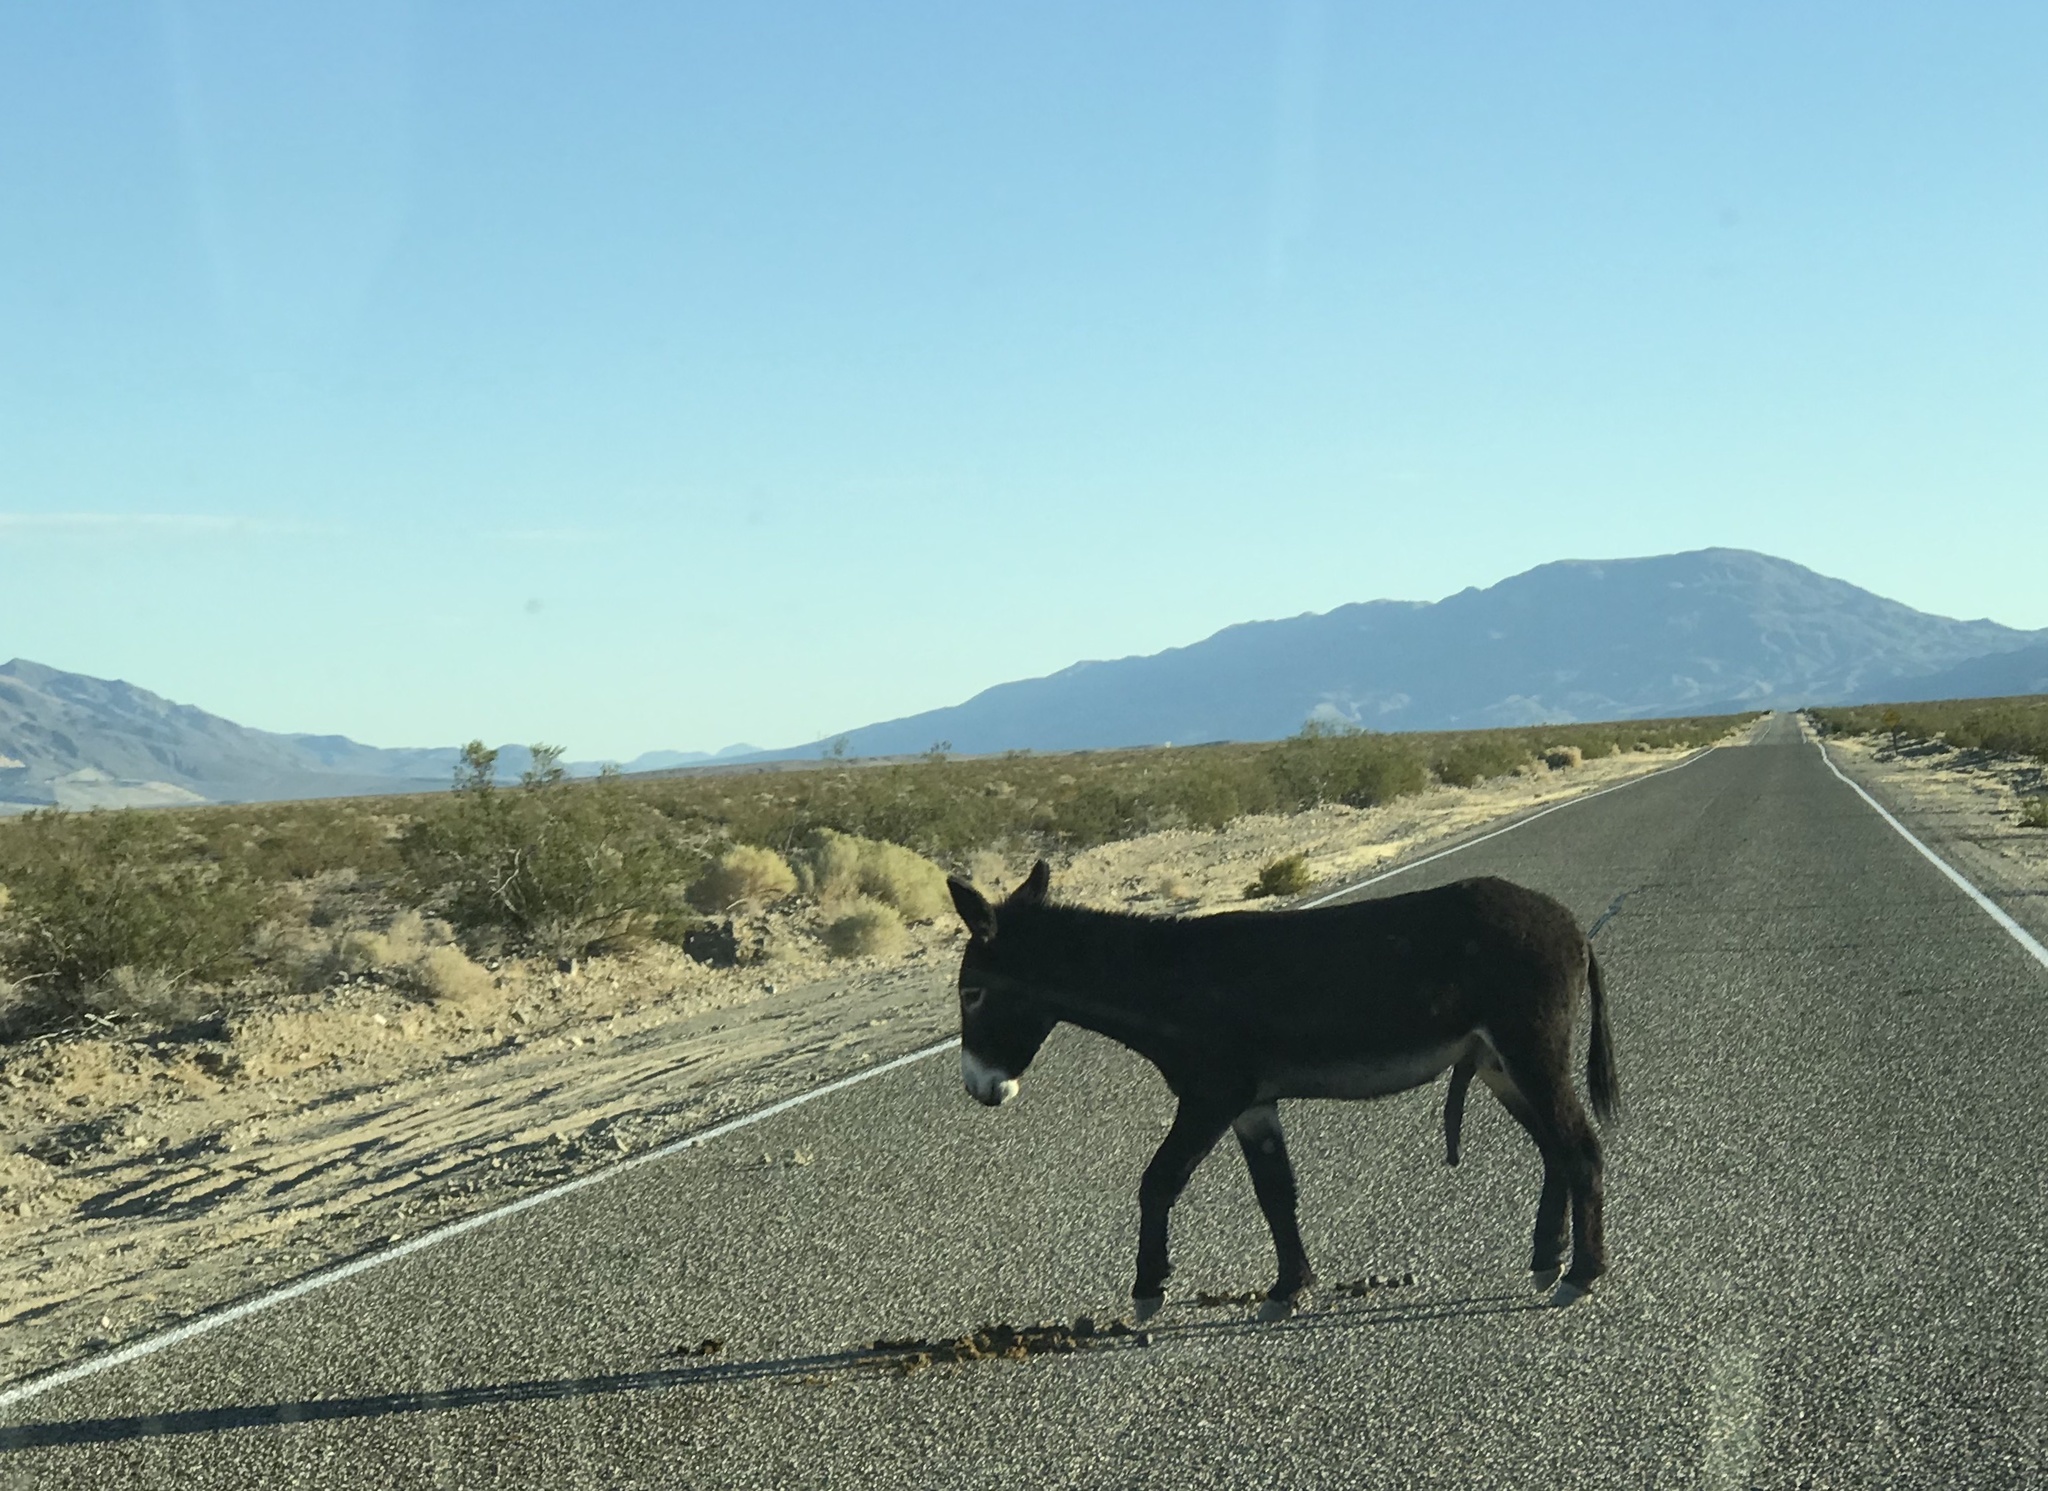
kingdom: Animalia
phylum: Chordata
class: Mammalia
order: Perissodactyla
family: Equidae
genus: Equus
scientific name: Equus asinus
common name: Ass
